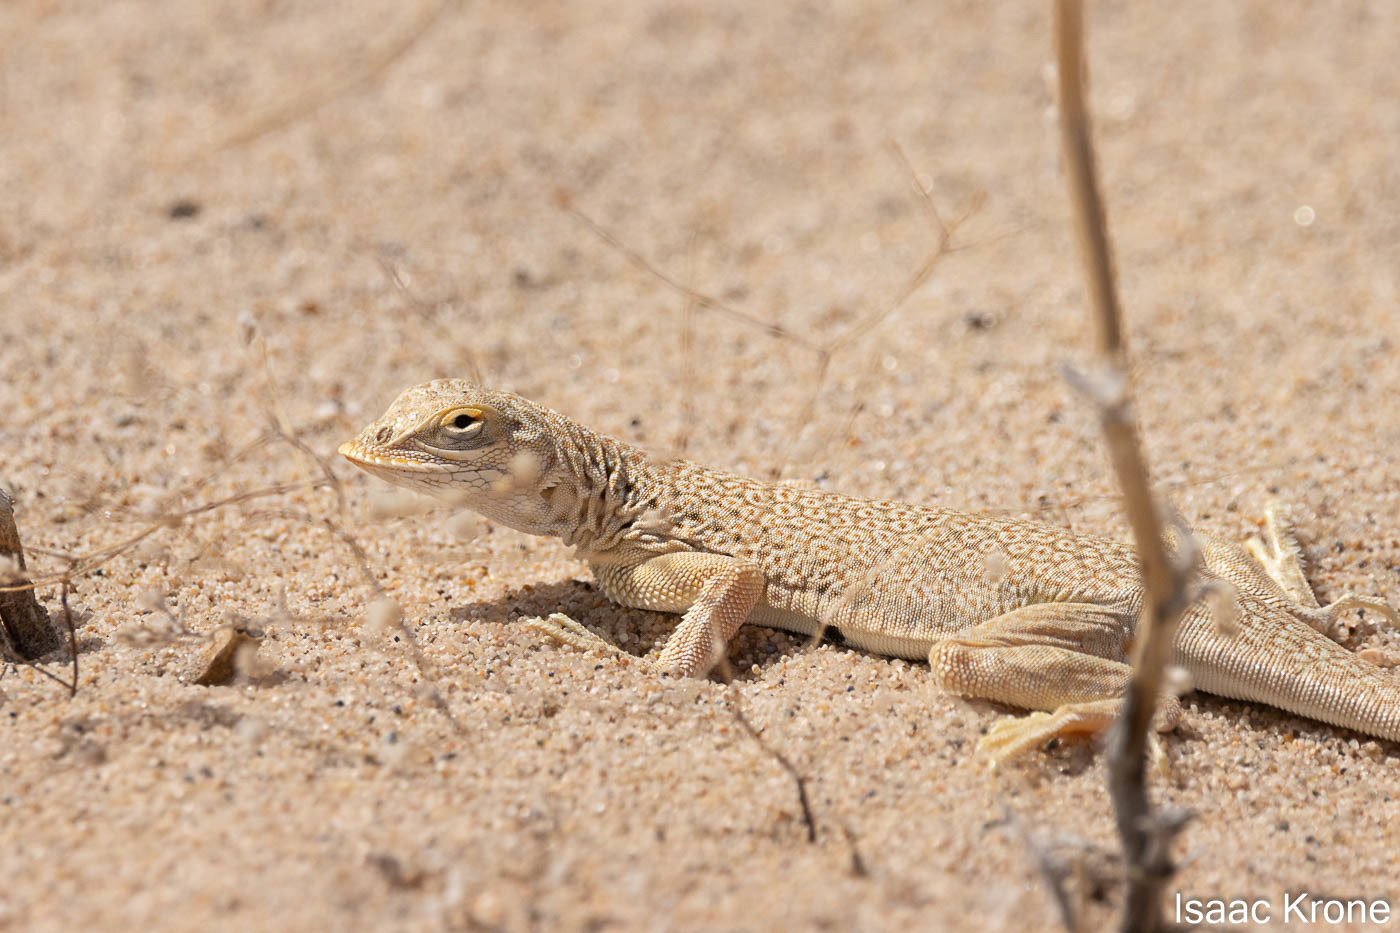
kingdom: Animalia
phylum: Chordata
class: Squamata
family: Phrynosomatidae
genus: Uma
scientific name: Uma scoparia
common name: Mojave fringe-toed lizard
